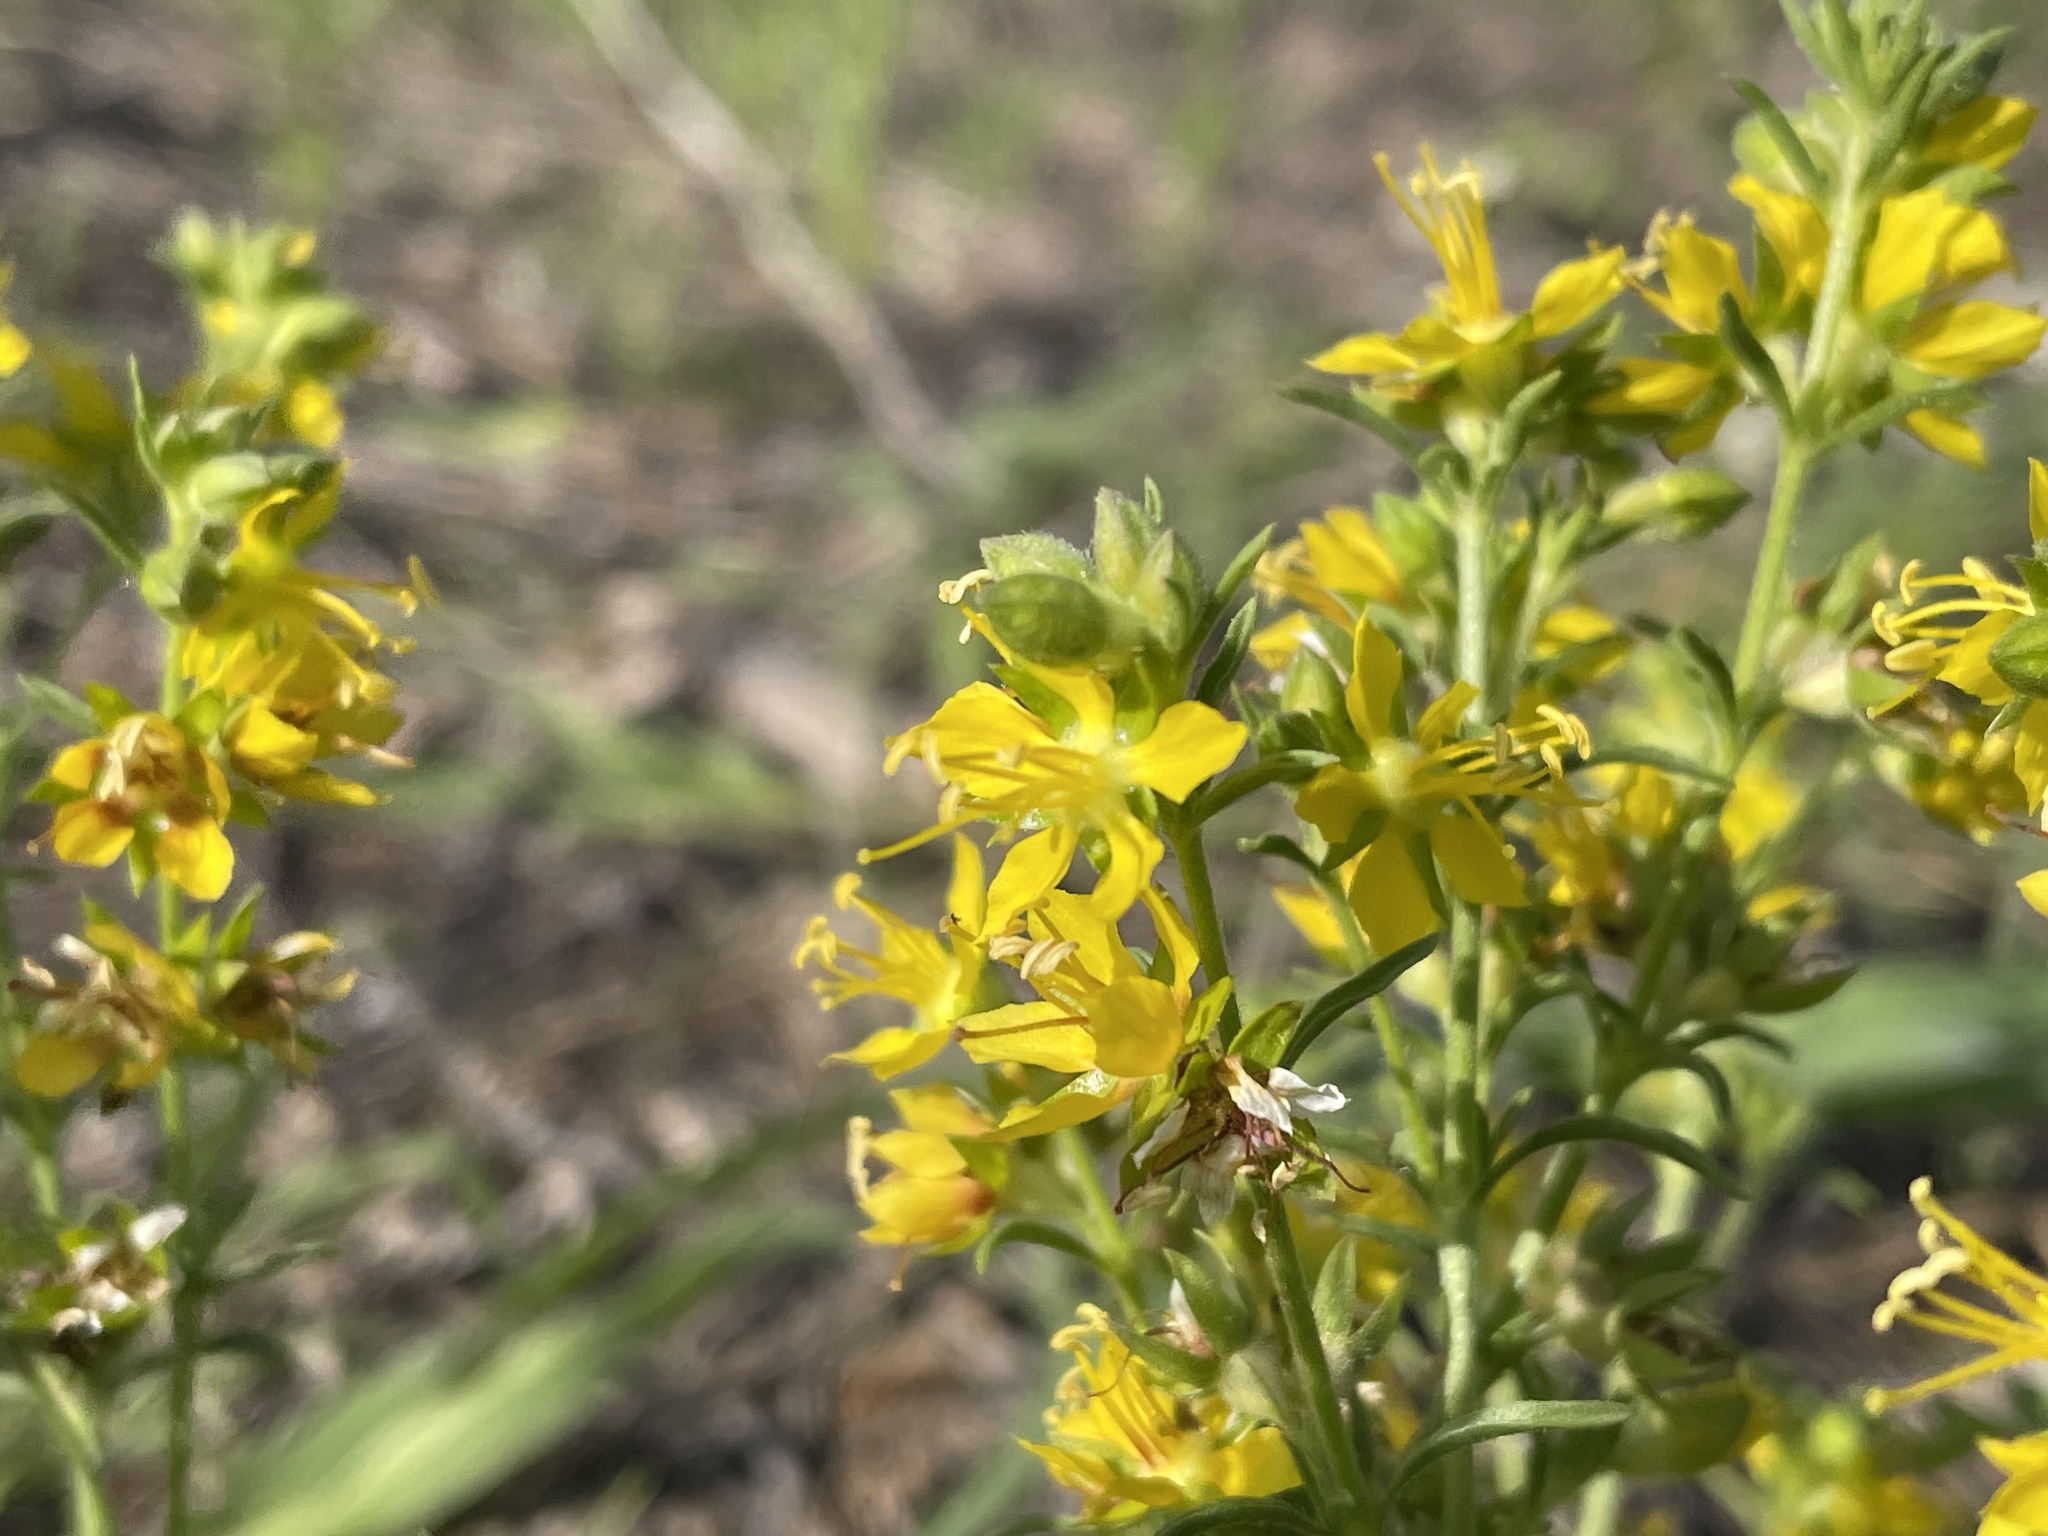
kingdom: Plantae
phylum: Tracheophyta
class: Magnoliopsida
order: Vahliales
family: Vahliaceae
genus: Vahlia
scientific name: Vahlia capensis
